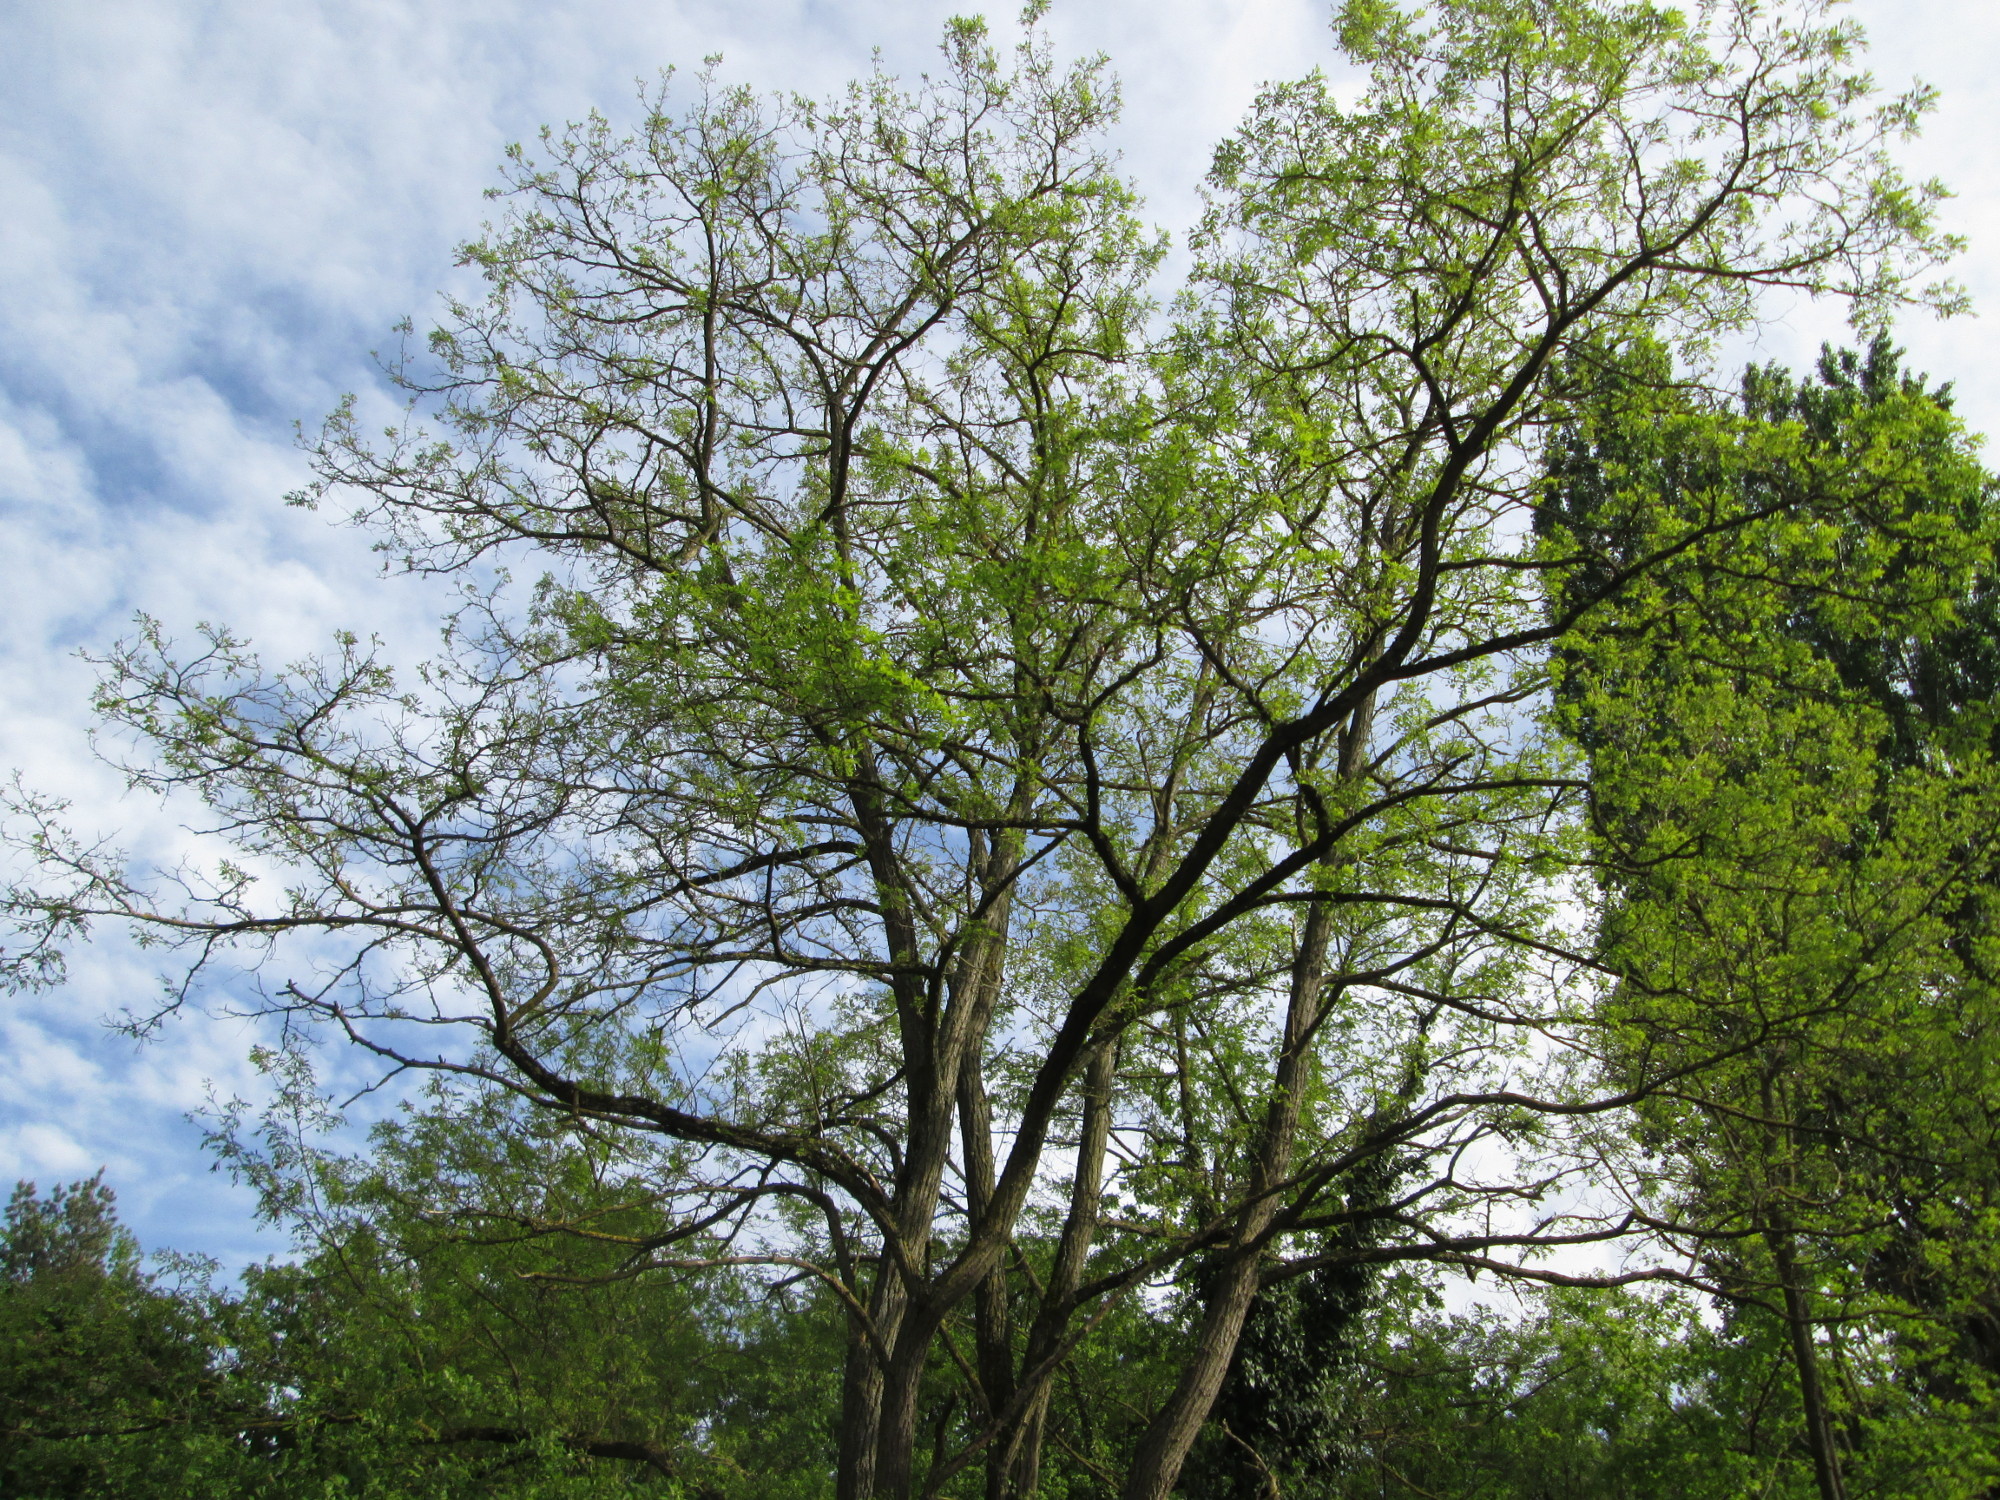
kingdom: Plantae
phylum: Tracheophyta
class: Magnoliopsida
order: Fabales
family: Fabaceae
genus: Robinia
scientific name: Robinia pseudoacacia
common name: Black locust
